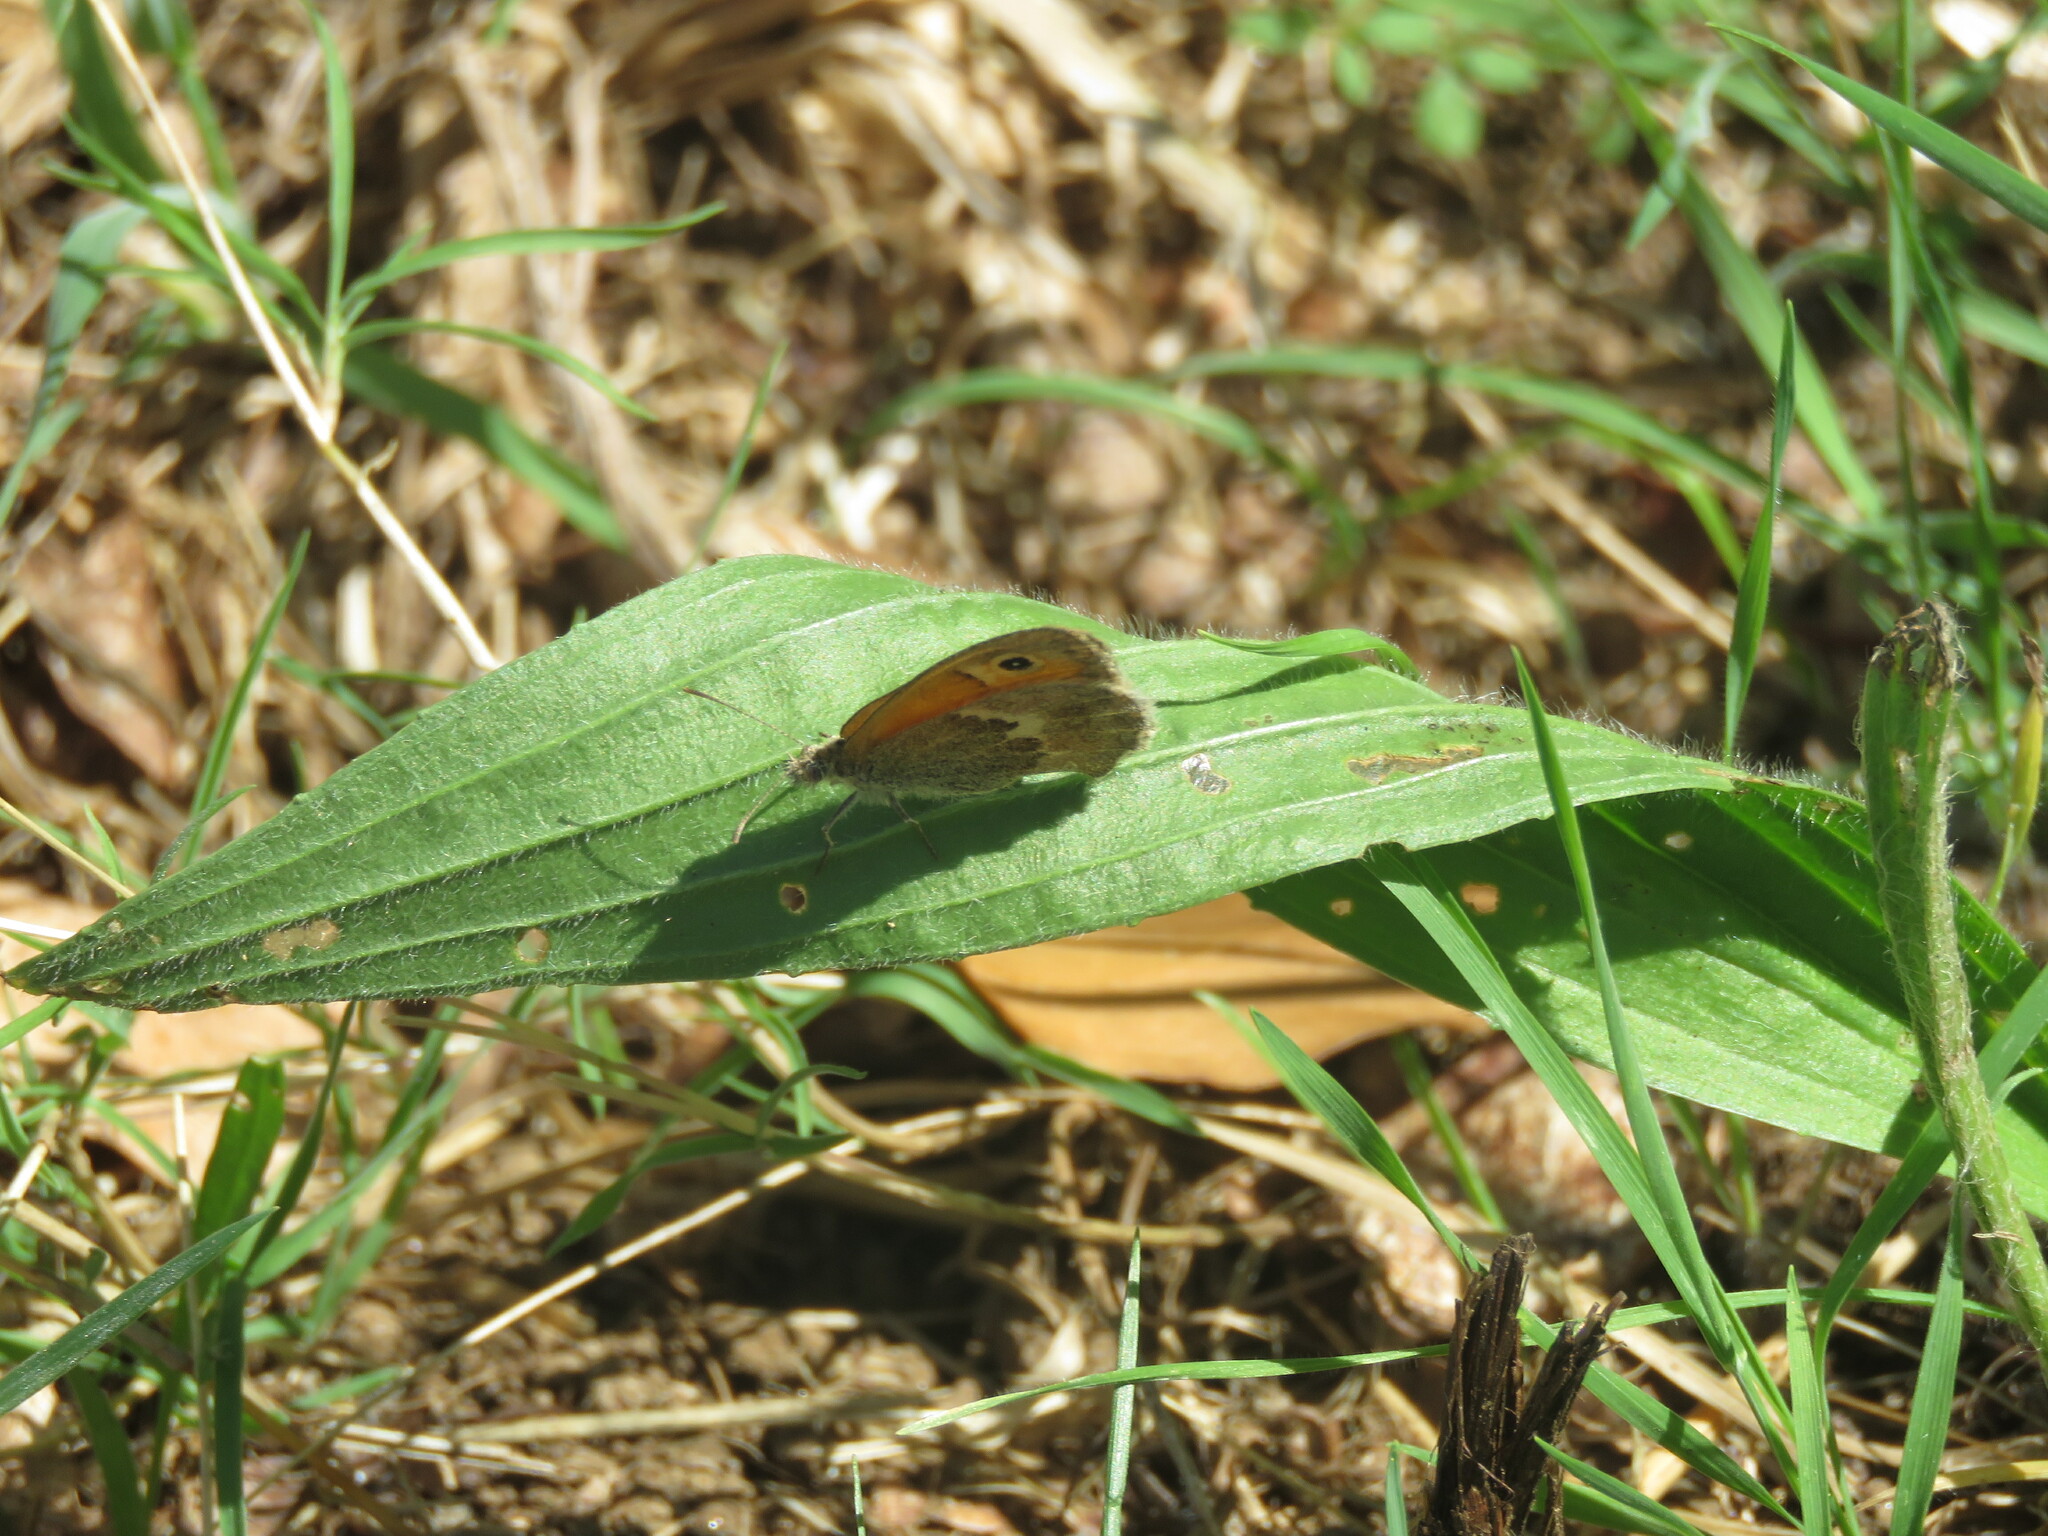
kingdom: Animalia
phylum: Arthropoda
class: Insecta
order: Lepidoptera
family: Nymphalidae
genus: Coenonympha
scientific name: Coenonympha pamphilus
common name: Small heath
